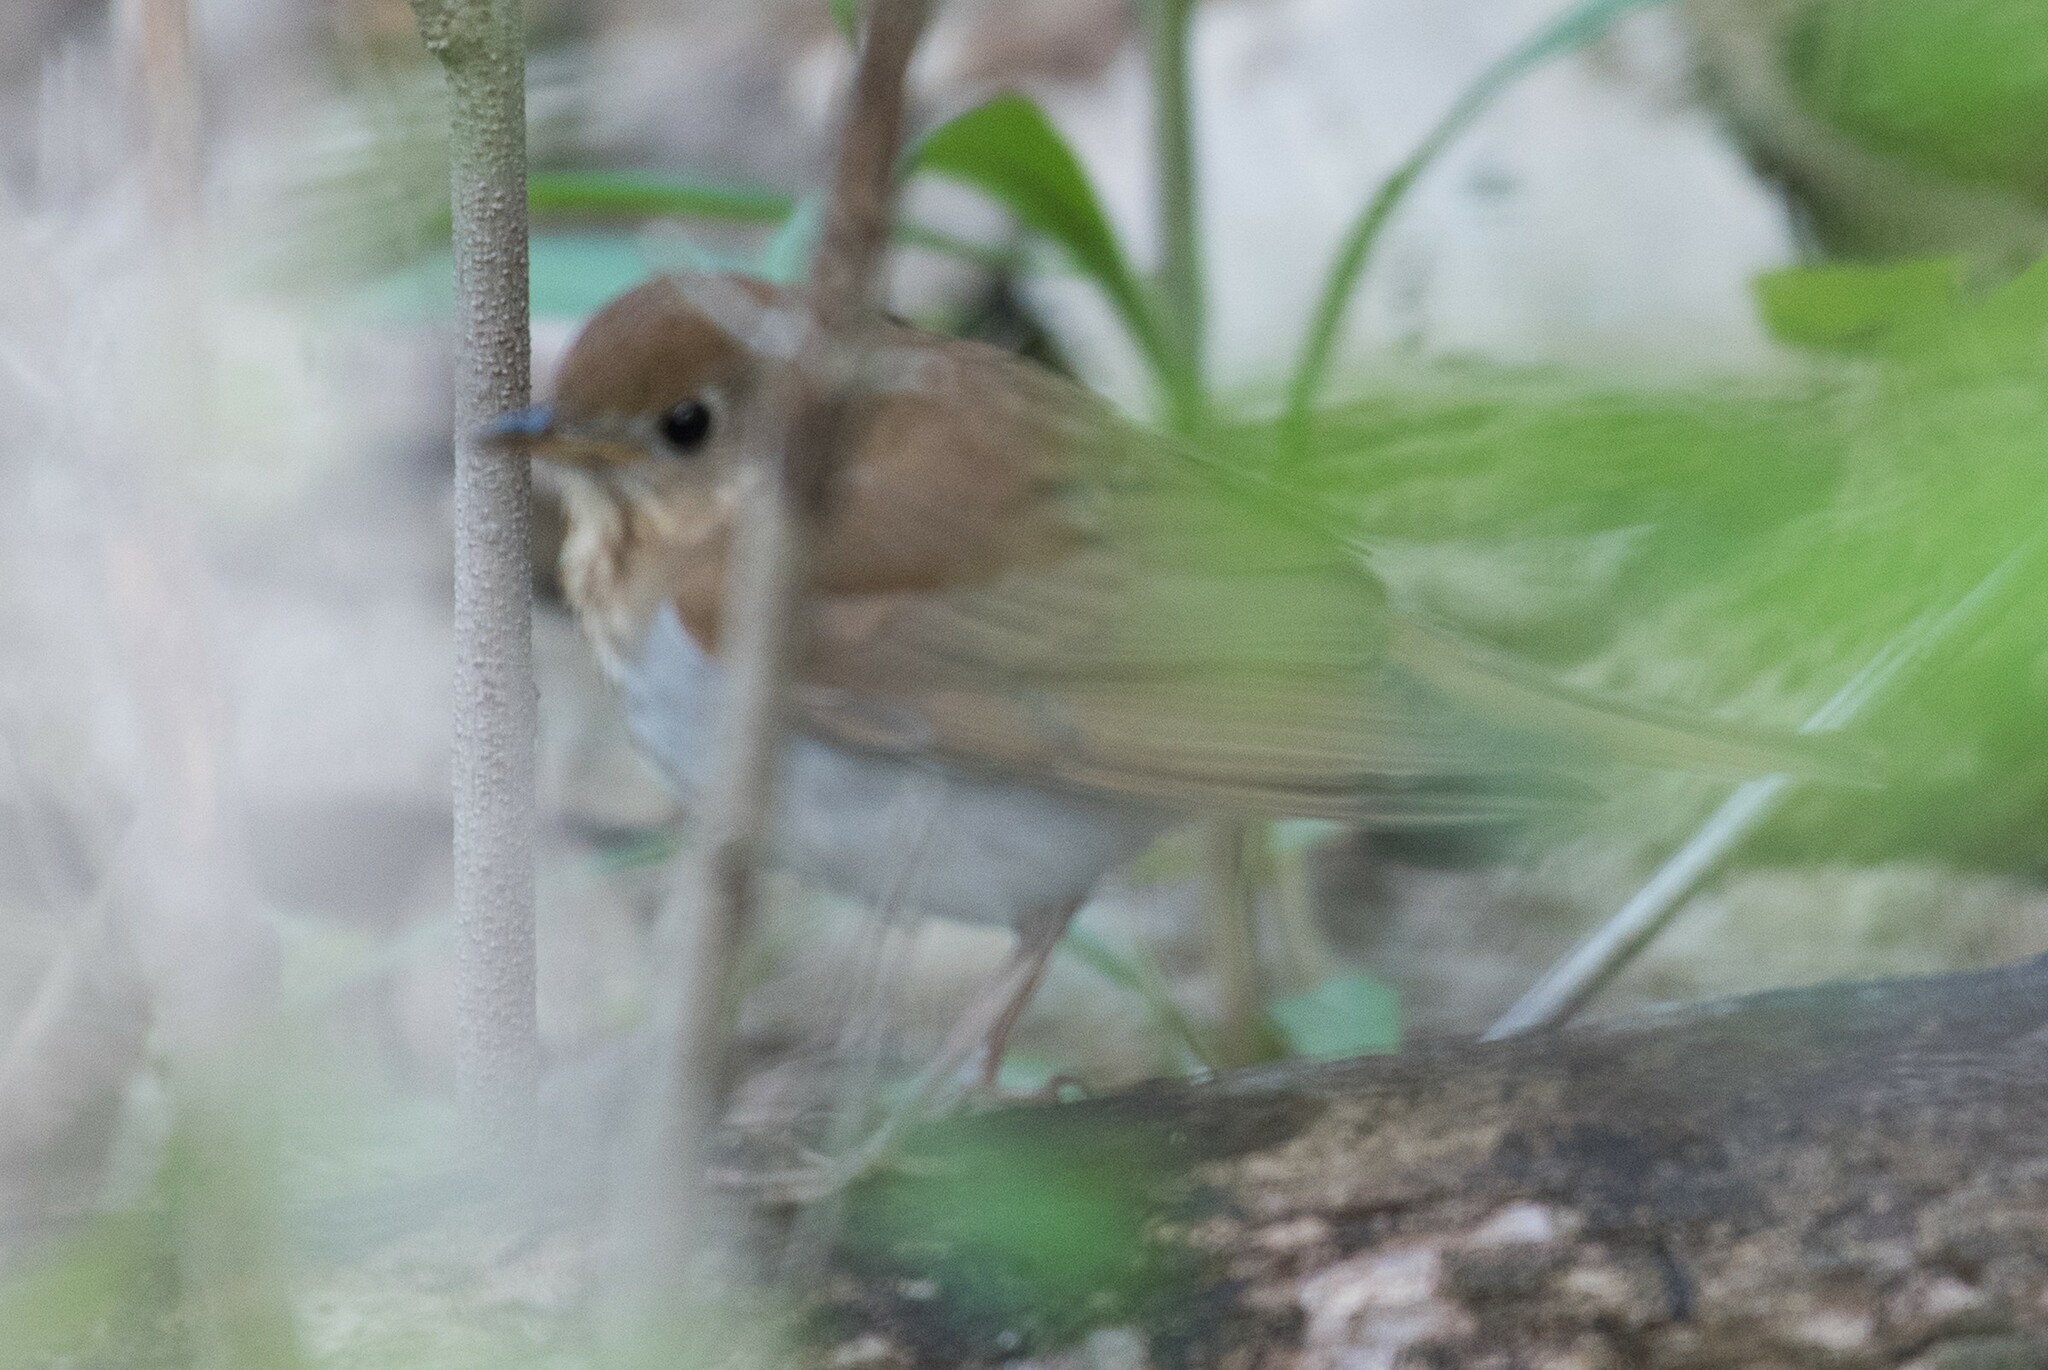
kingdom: Animalia
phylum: Chordata
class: Aves
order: Passeriformes
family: Turdidae
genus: Catharus
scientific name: Catharus fuscescens
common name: Veery
